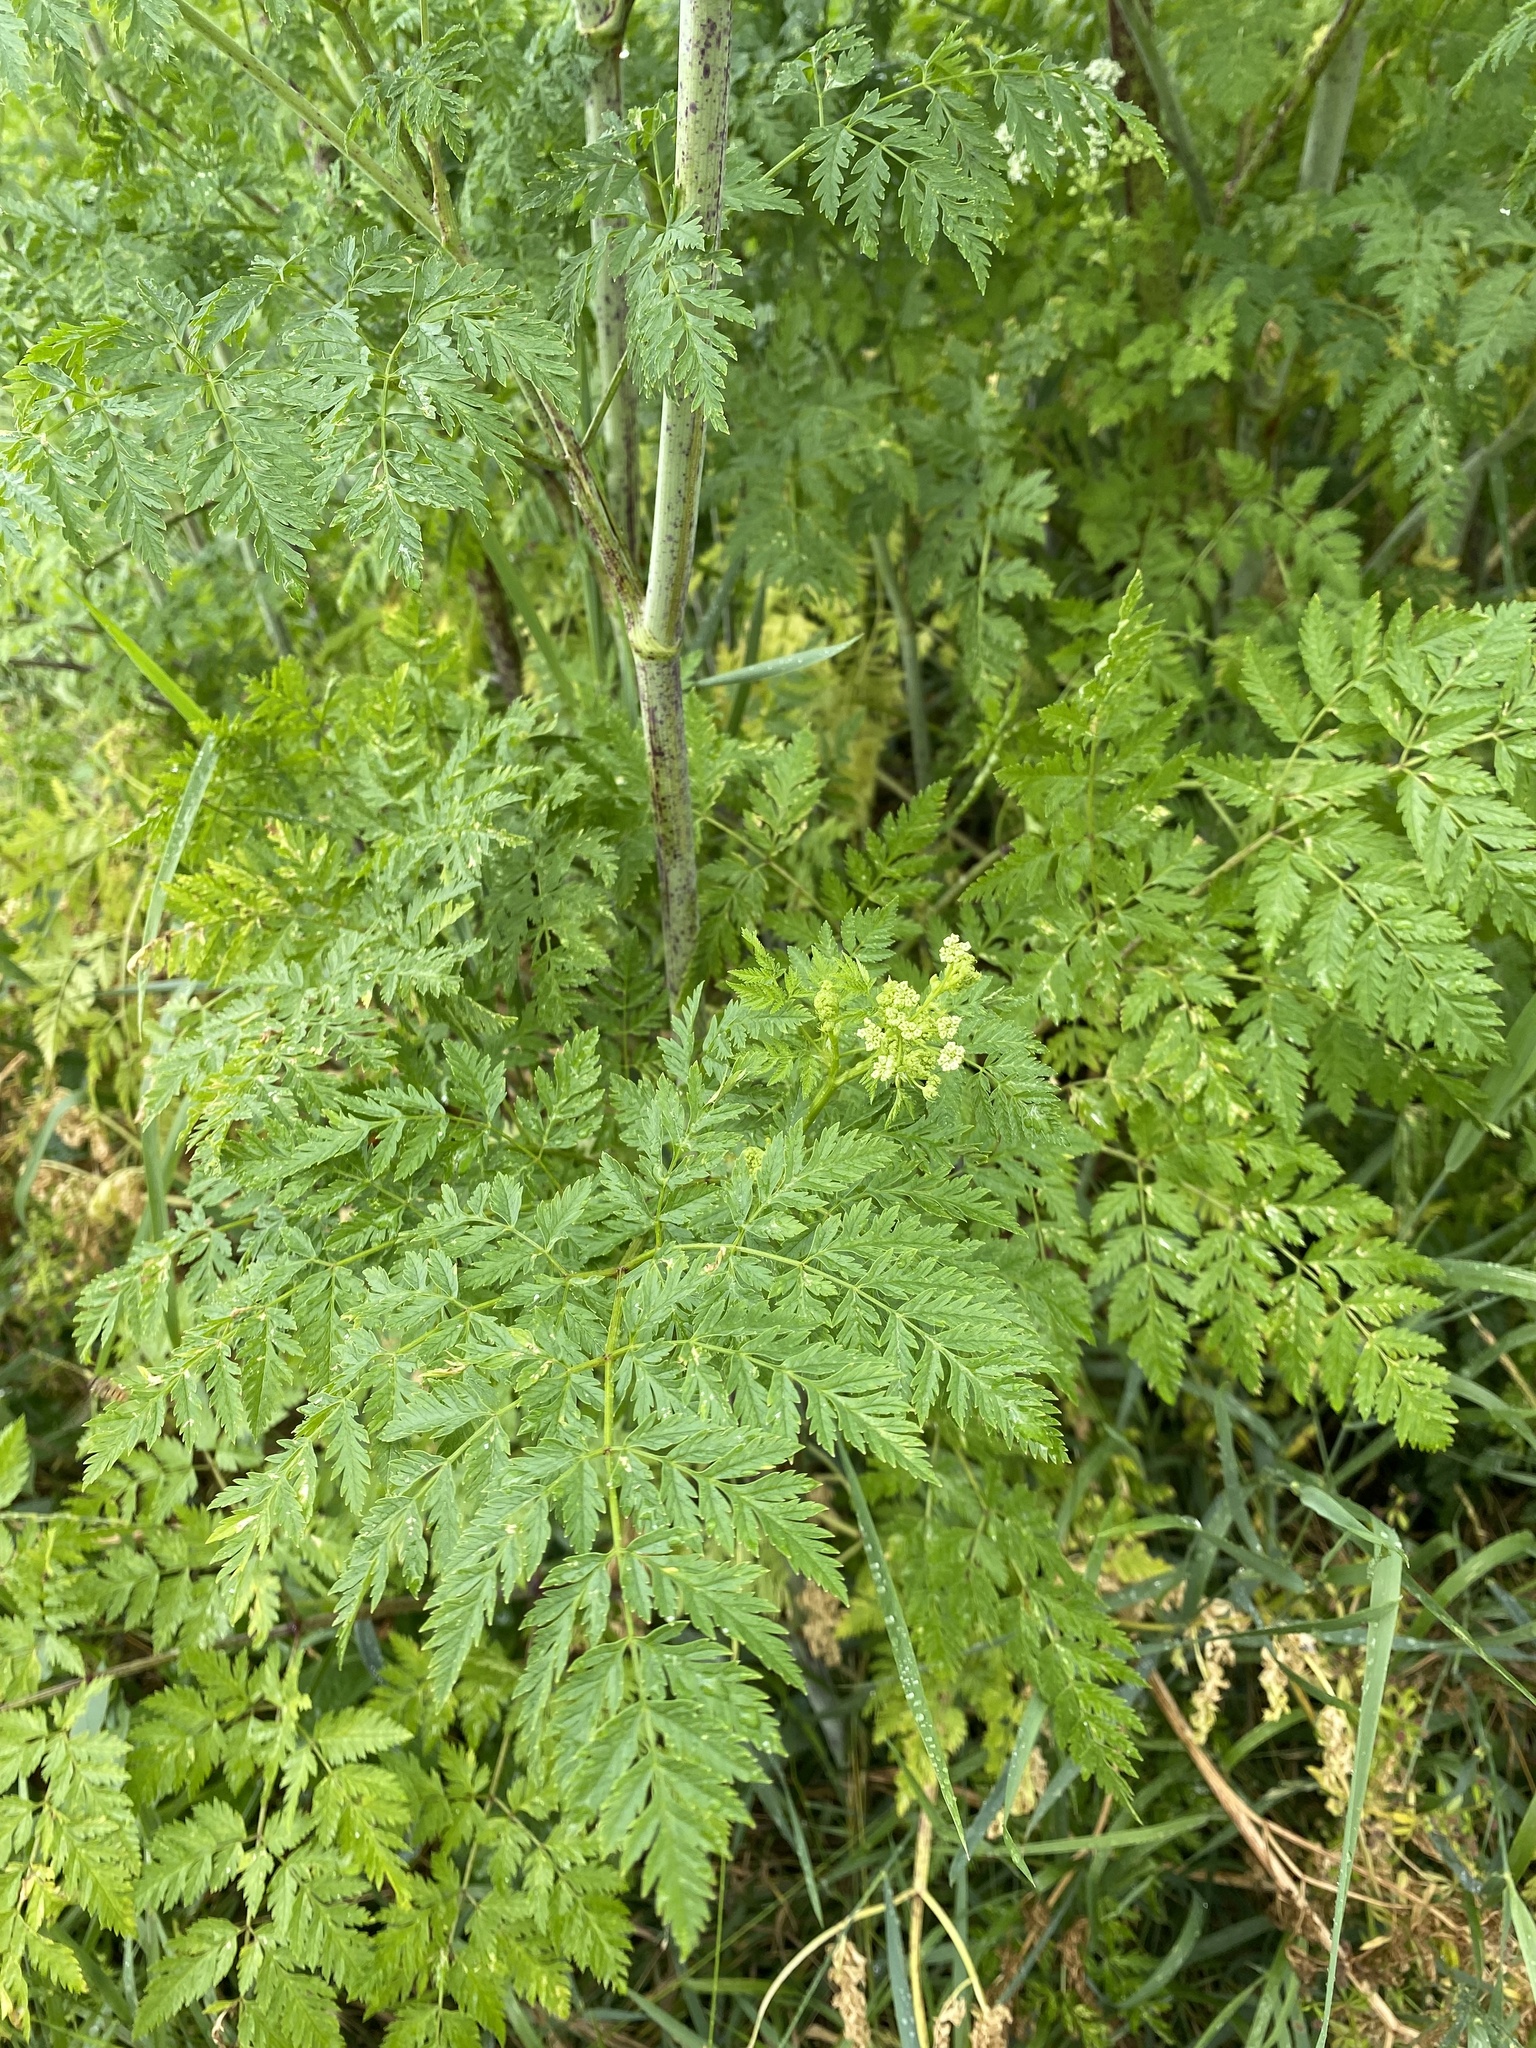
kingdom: Plantae
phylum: Tracheophyta
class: Magnoliopsida
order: Apiales
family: Apiaceae
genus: Conium
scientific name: Conium maculatum
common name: Hemlock
